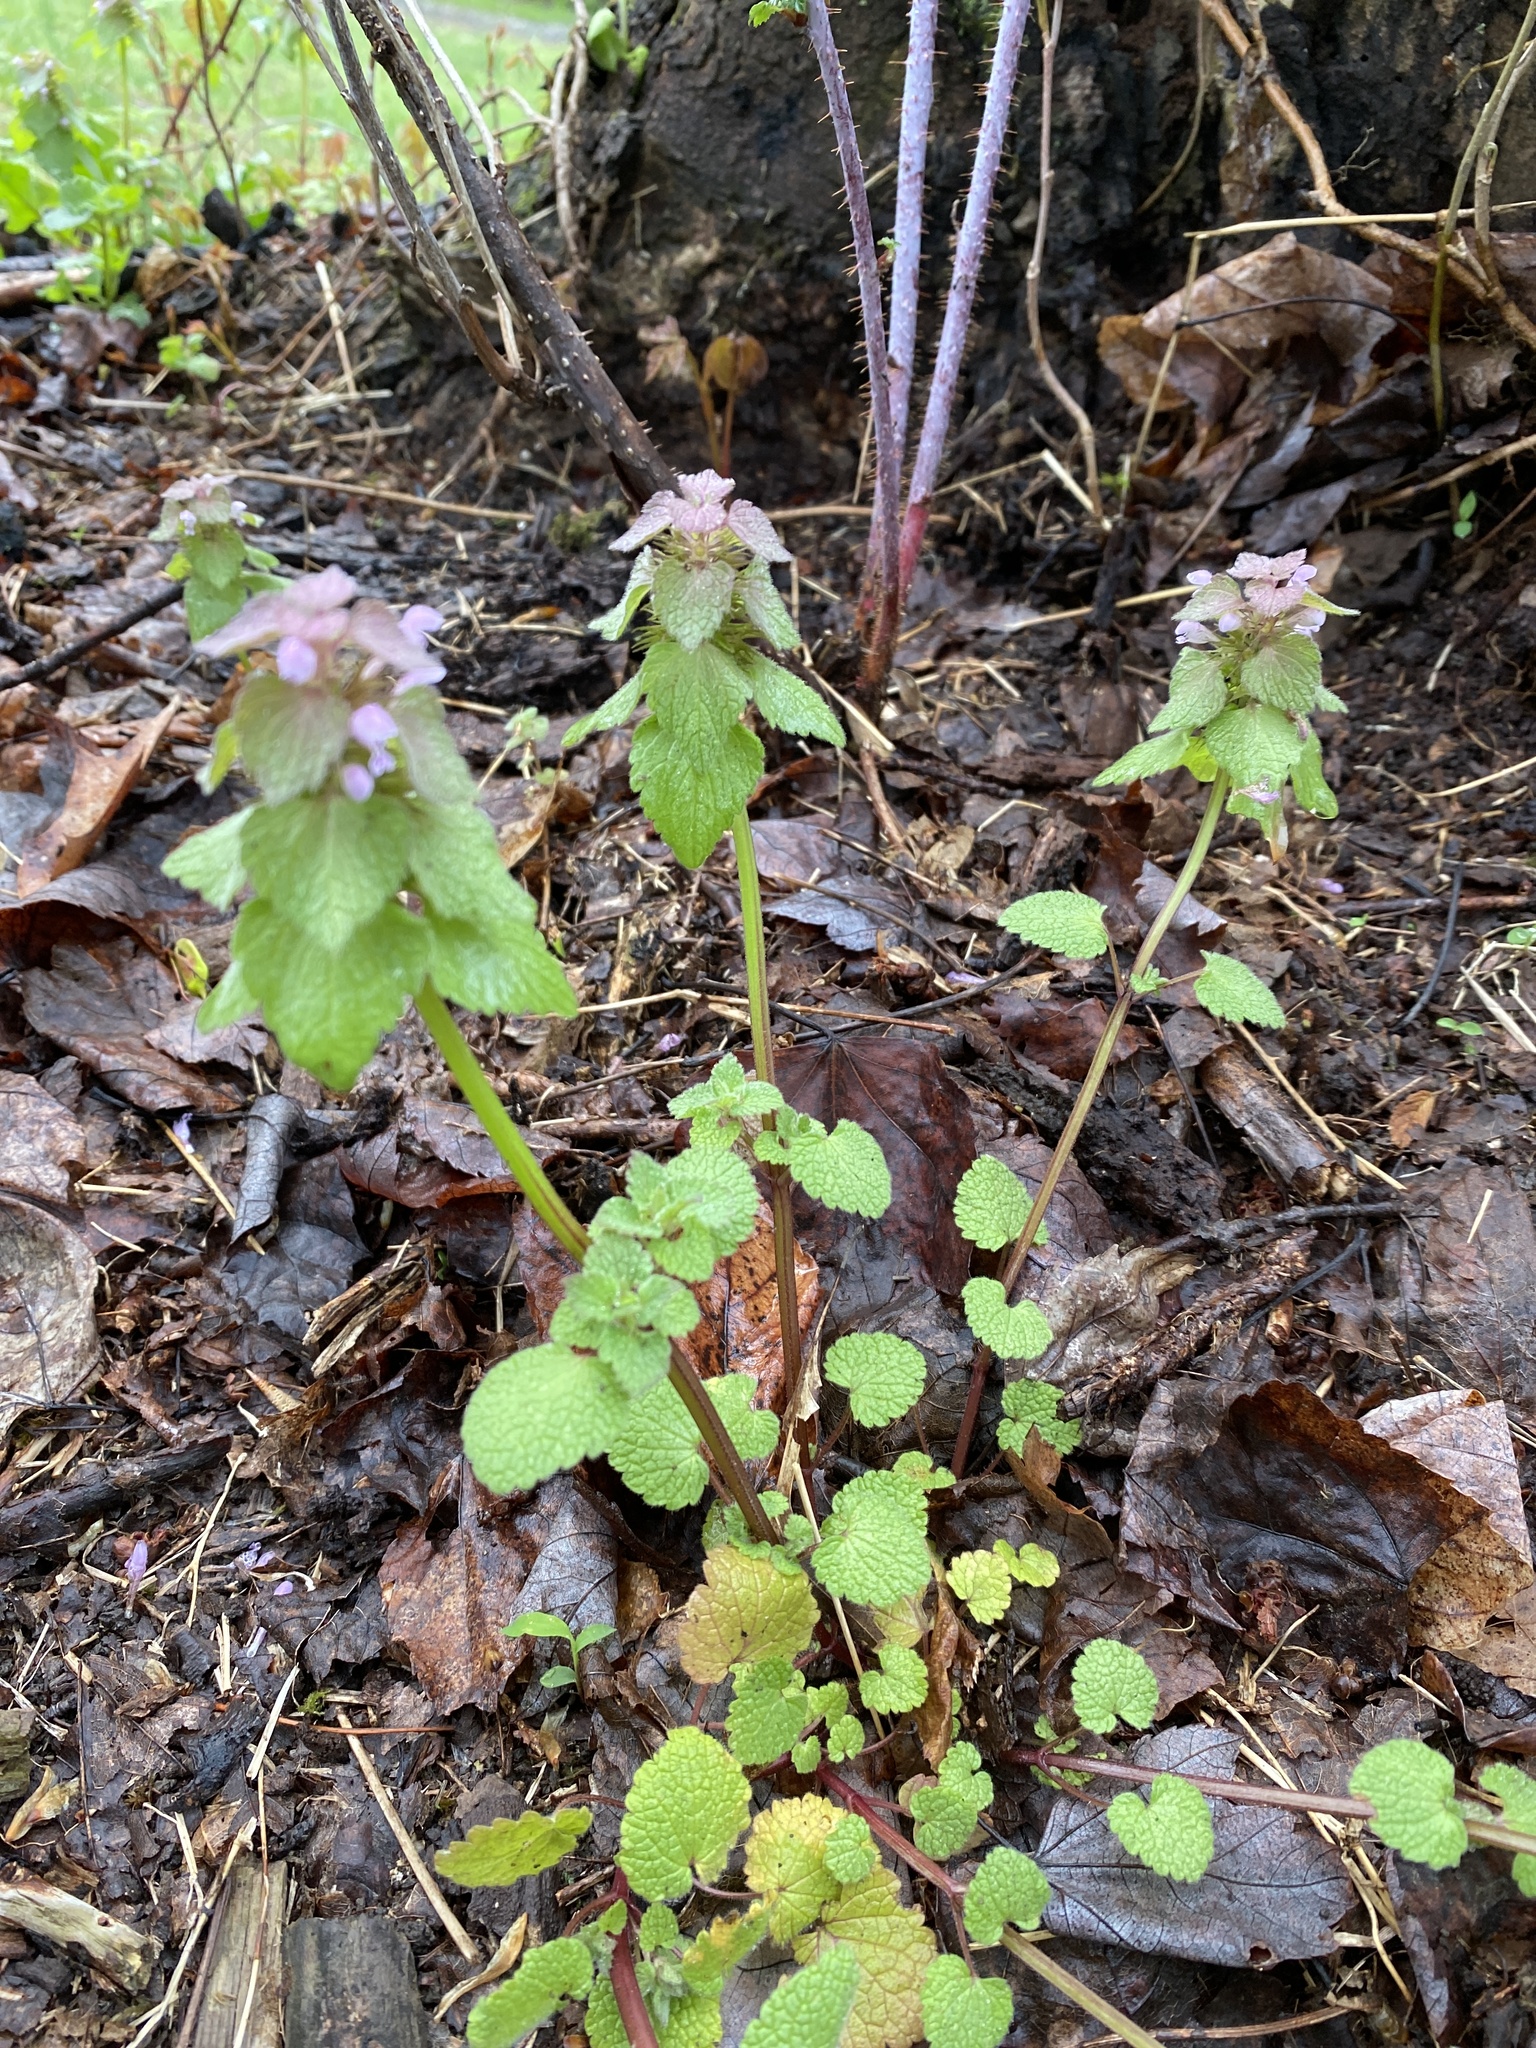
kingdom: Plantae
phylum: Tracheophyta
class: Magnoliopsida
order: Lamiales
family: Lamiaceae
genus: Lamium
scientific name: Lamium purpureum
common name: Red dead-nettle
